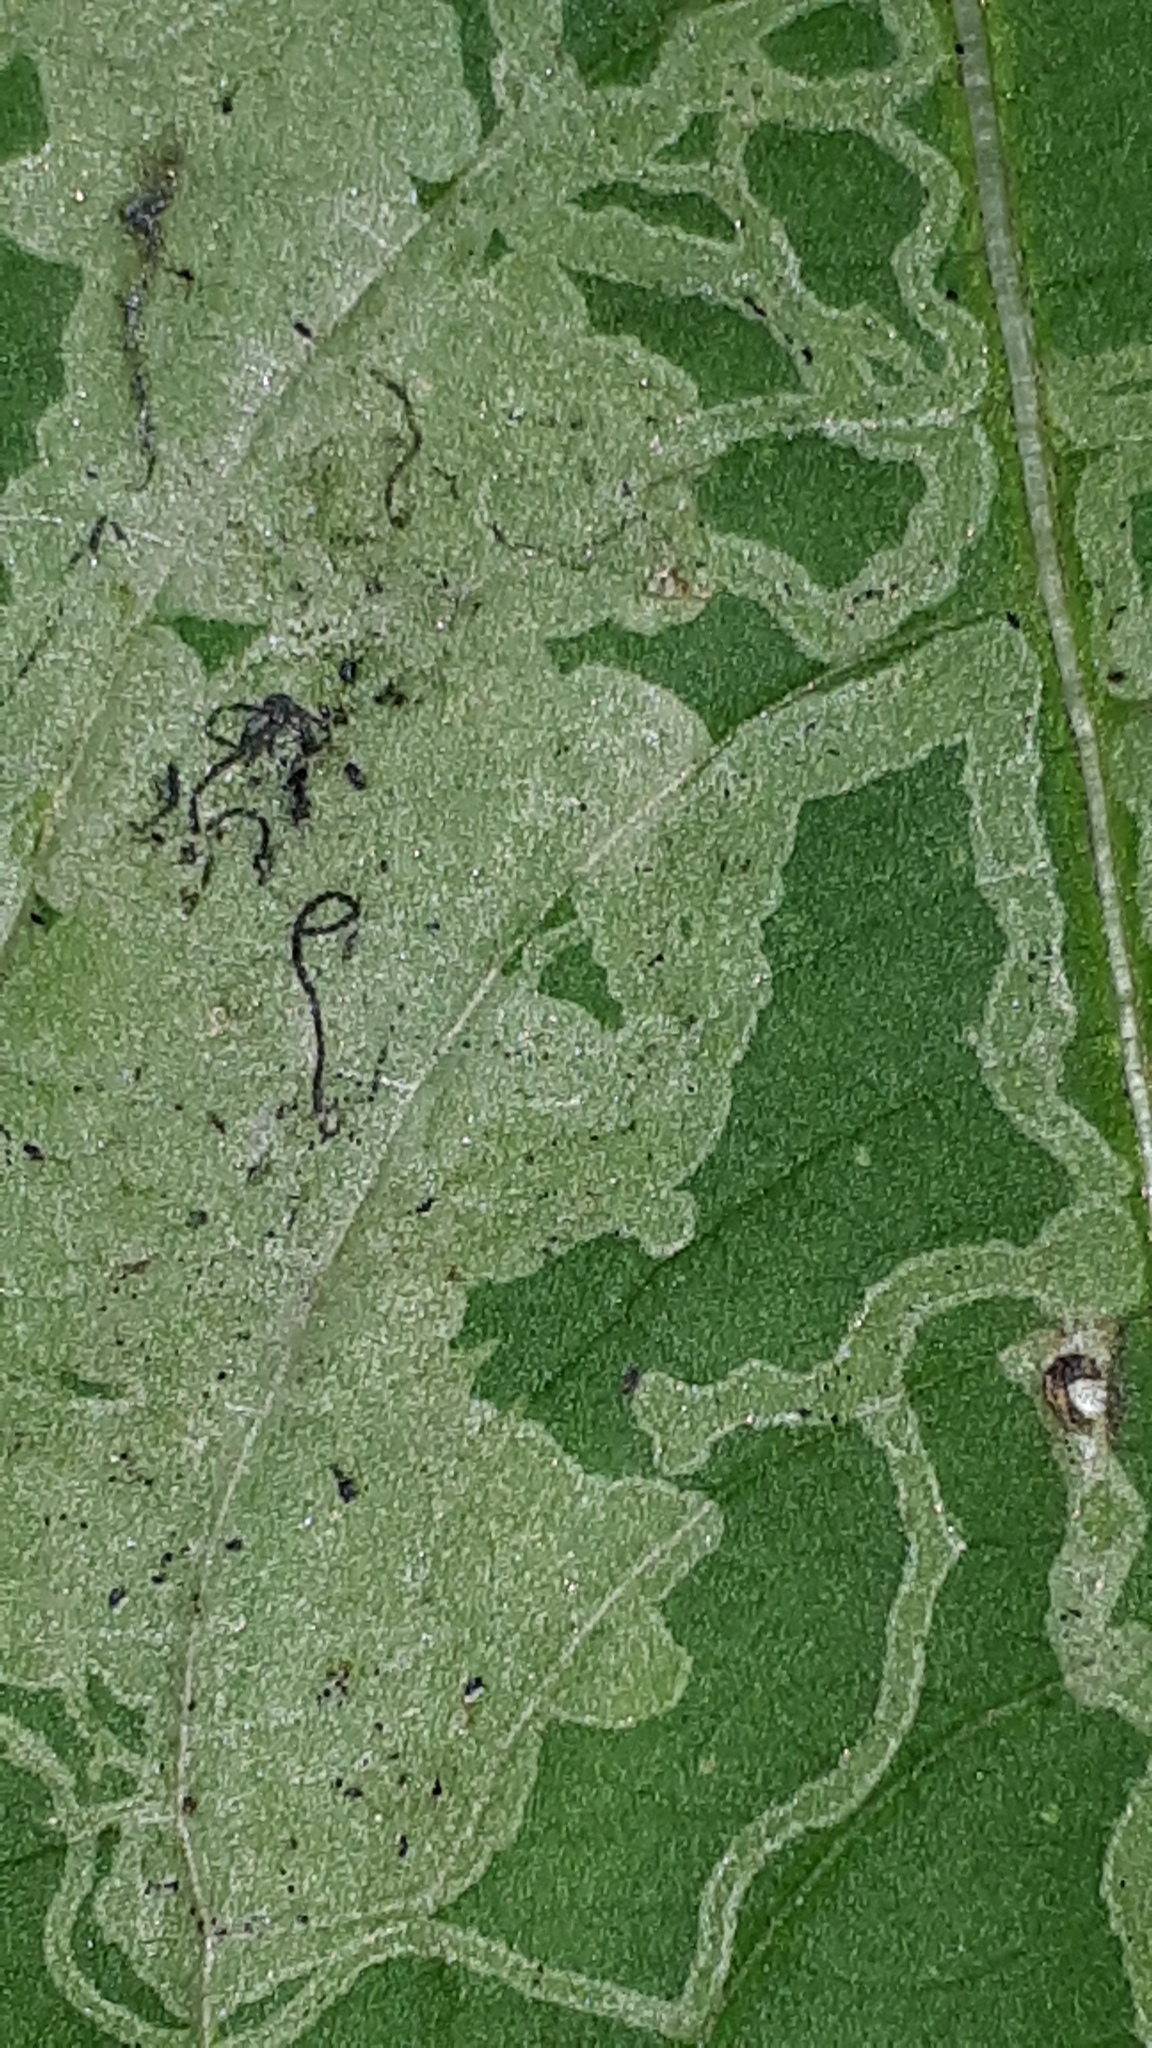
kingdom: Animalia
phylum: Arthropoda
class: Insecta
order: Diptera
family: Agromyzidae
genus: Phytoliriomyza
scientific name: Phytoliriomyza melampyga
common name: Jewelweed leaf-miner fly
